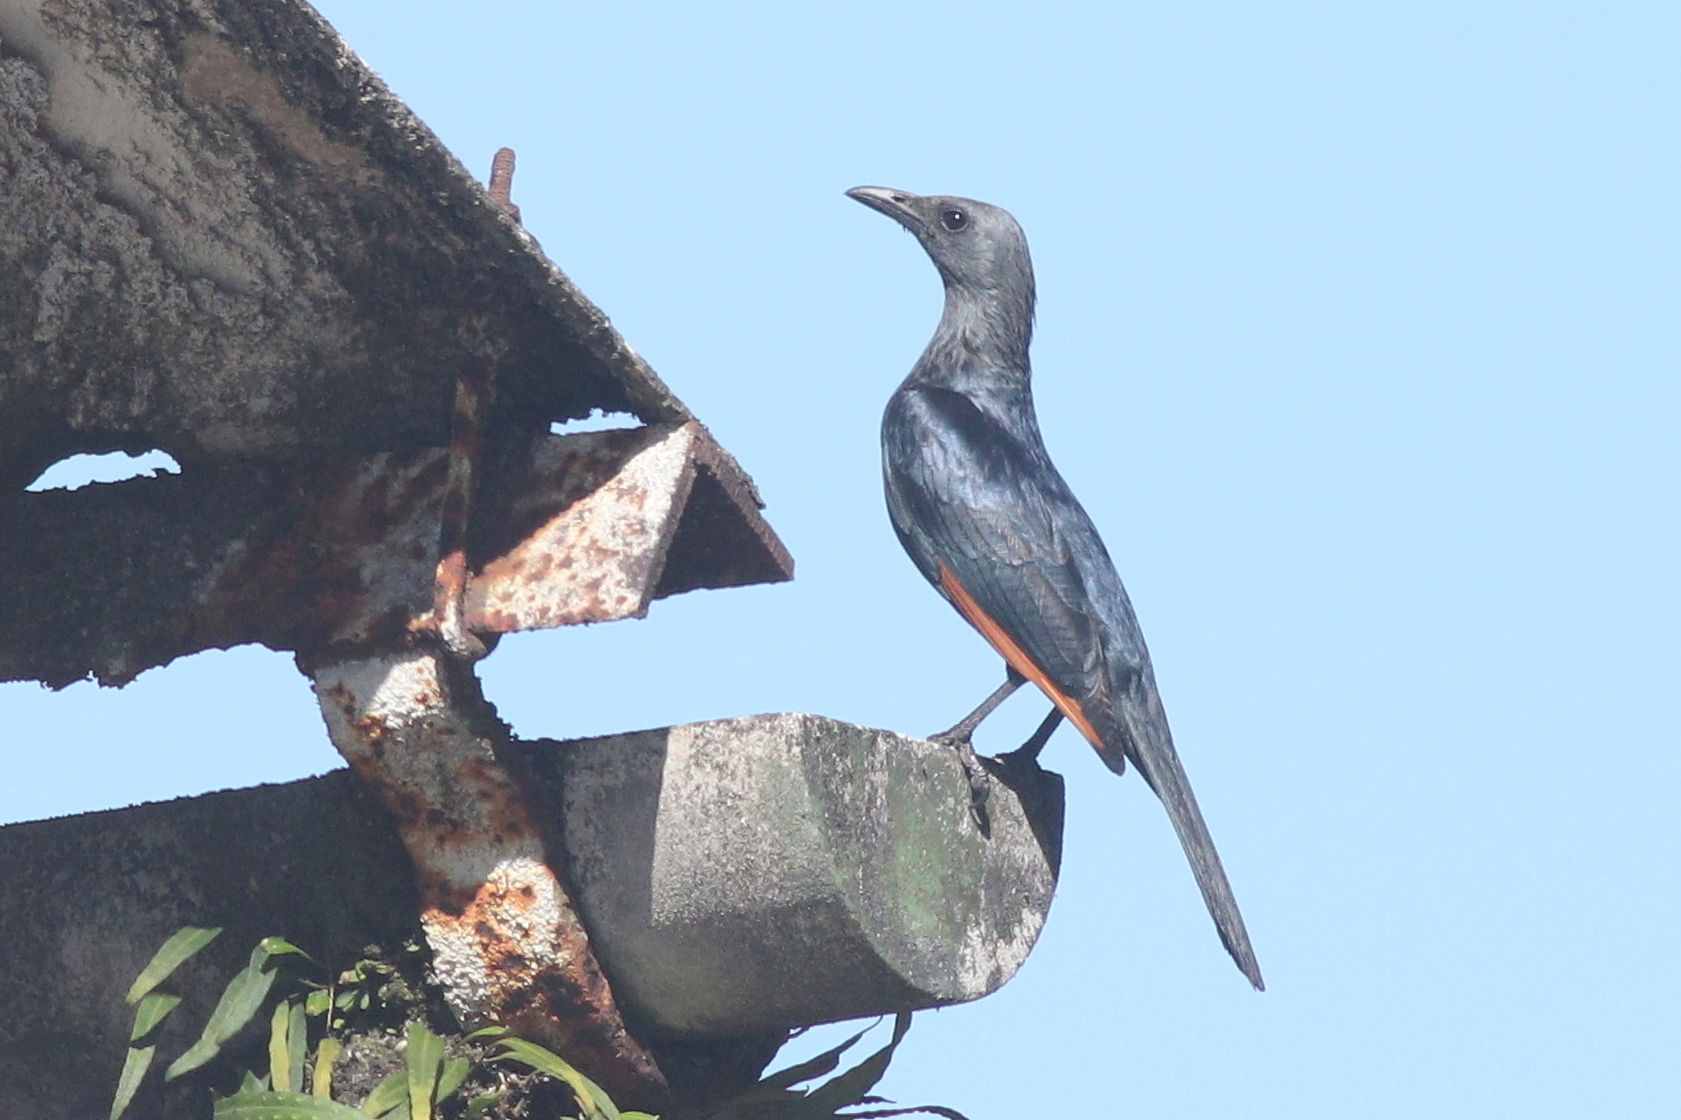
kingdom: Animalia
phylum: Chordata
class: Aves
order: Passeriformes
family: Sturnidae
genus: Onychognathus
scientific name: Onychognathus morio
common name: Red-winged starling
